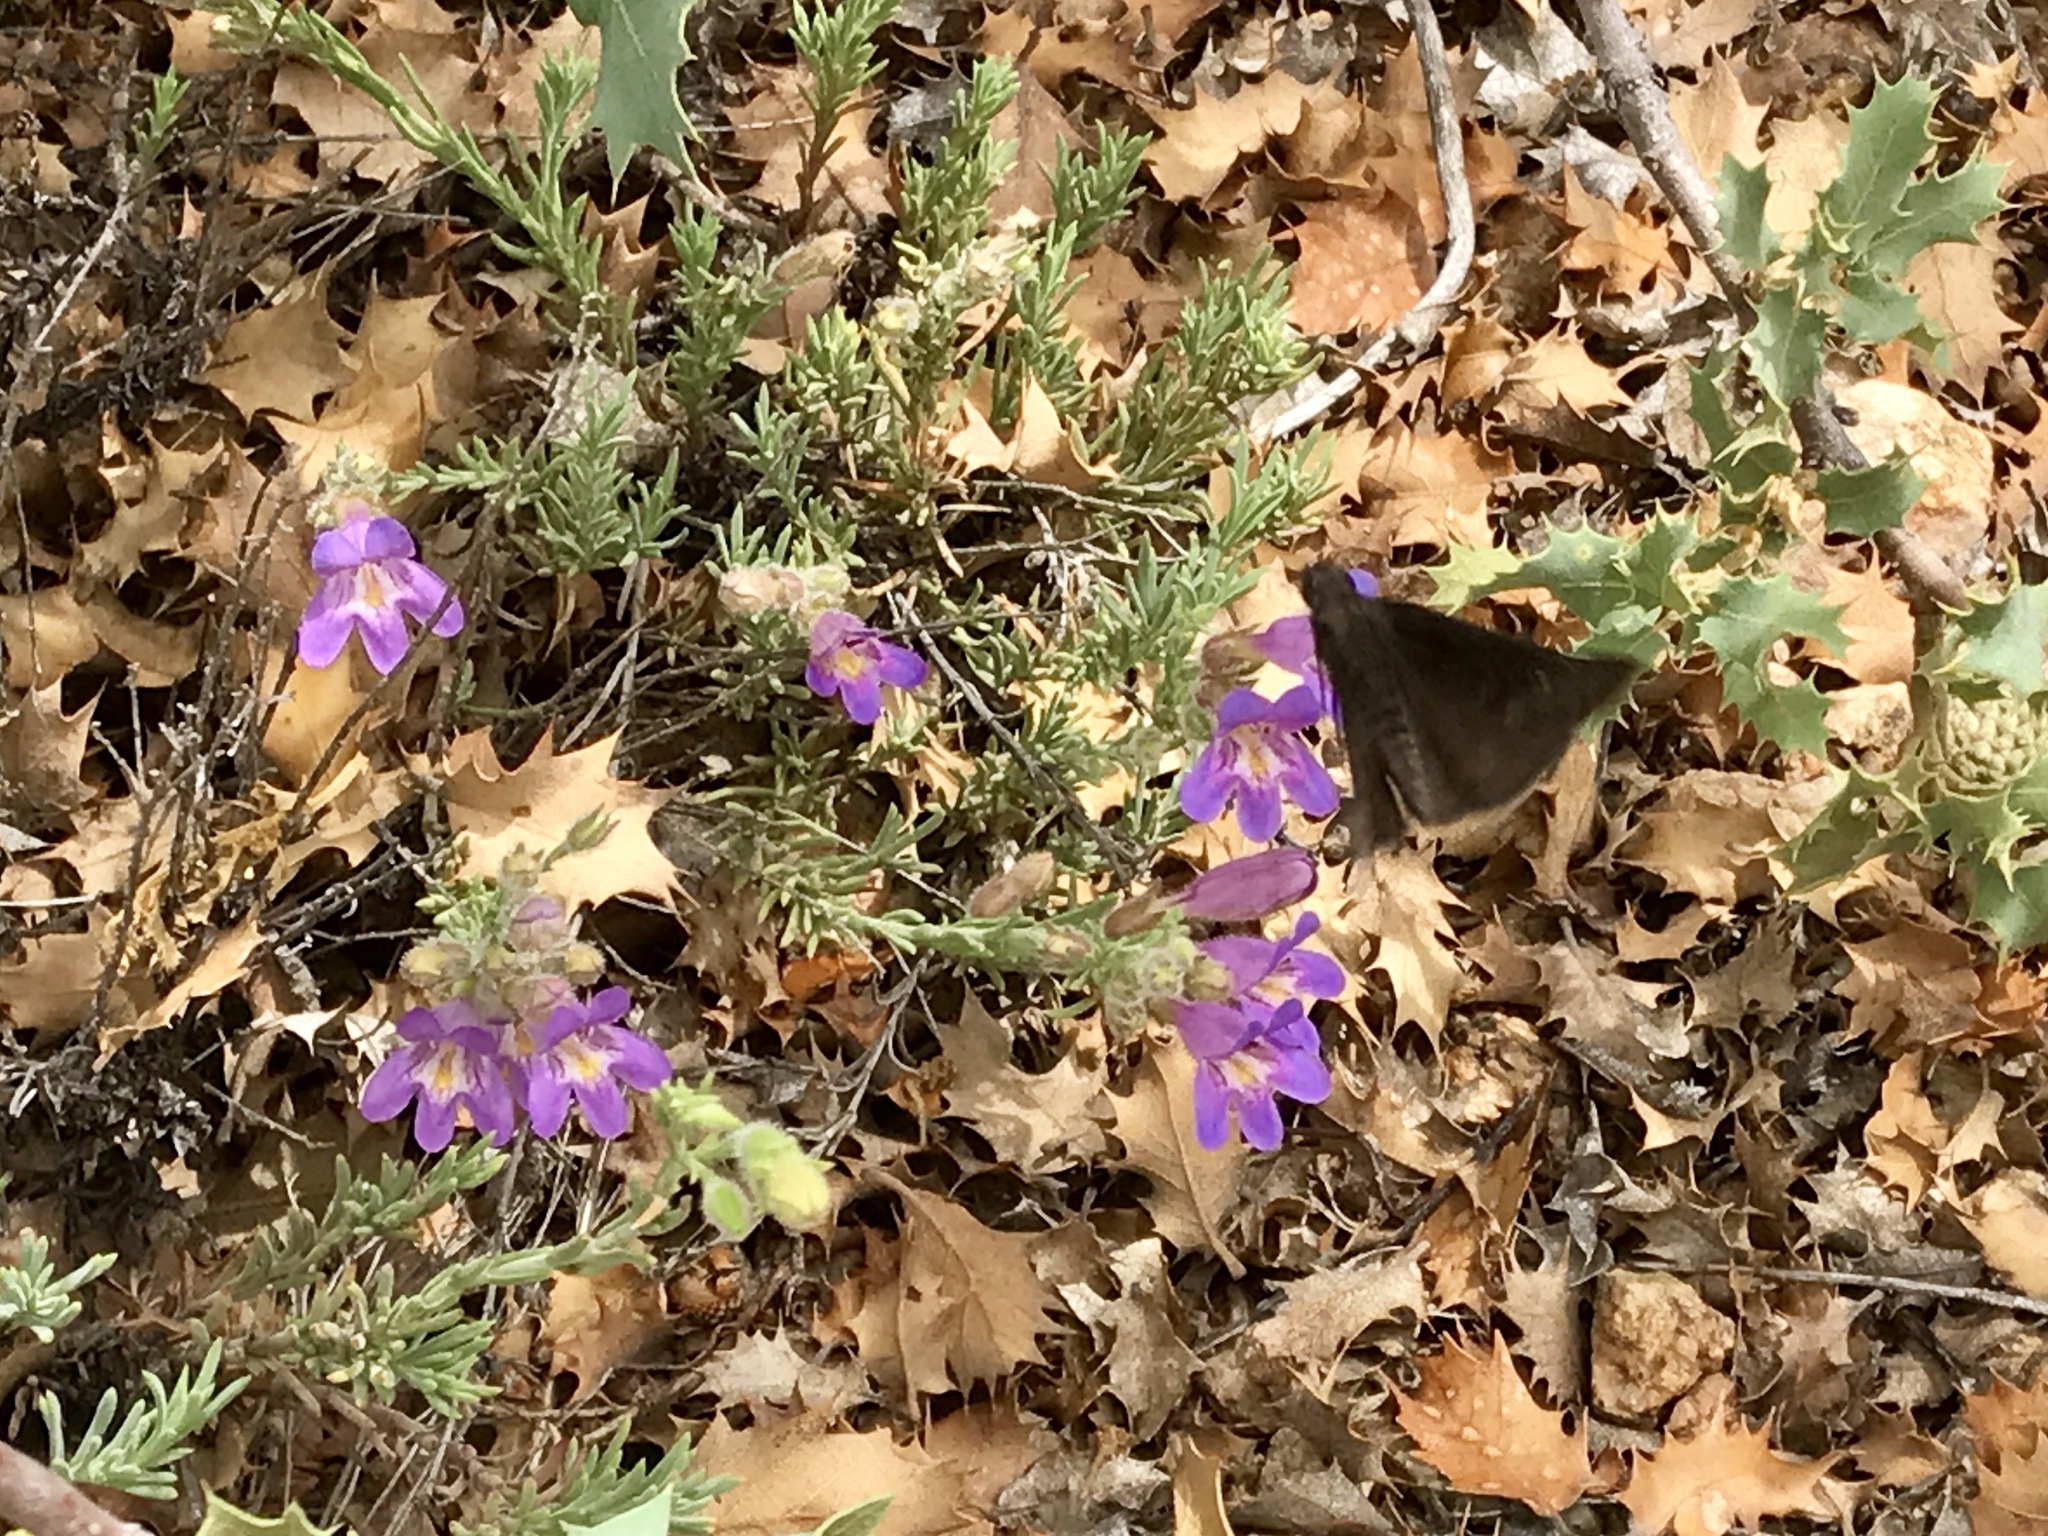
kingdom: Plantae
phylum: Tracheophyta
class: Magnoliopsida
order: Lamiales
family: Plantaginaceae
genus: Penstemon
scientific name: Penstemon linarioides
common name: Siler's penstemon
